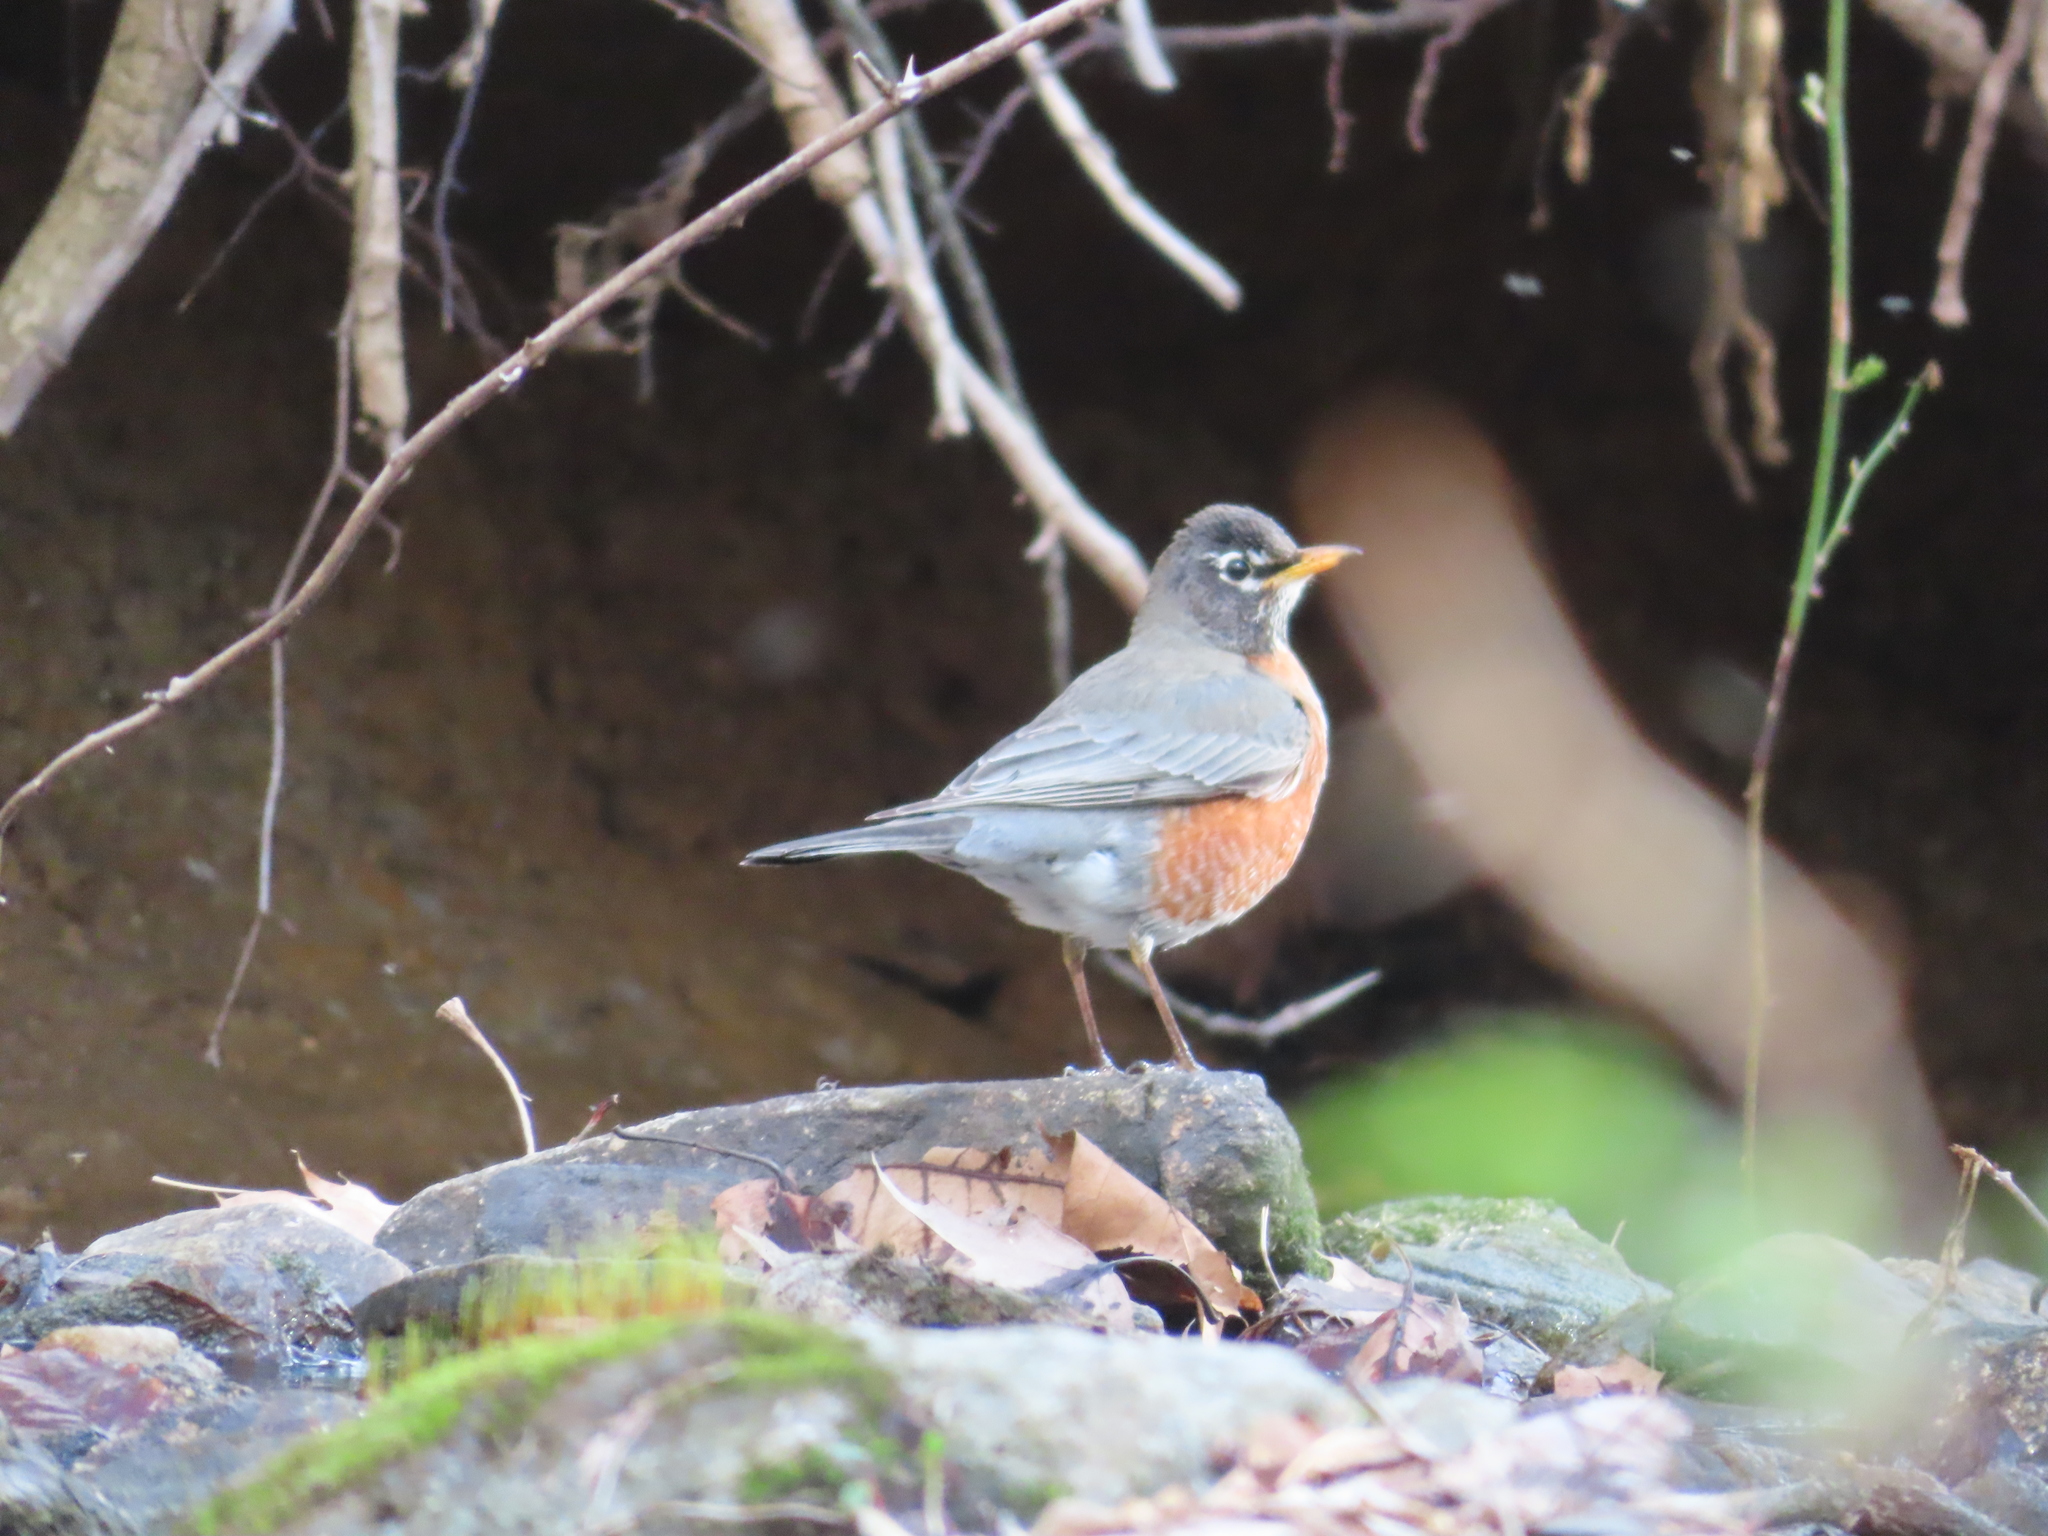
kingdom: Animalia
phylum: Chordata
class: Aves
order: Passeriformes
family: Turdidae
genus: Turdus
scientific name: Turdus migratorius
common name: American robin
